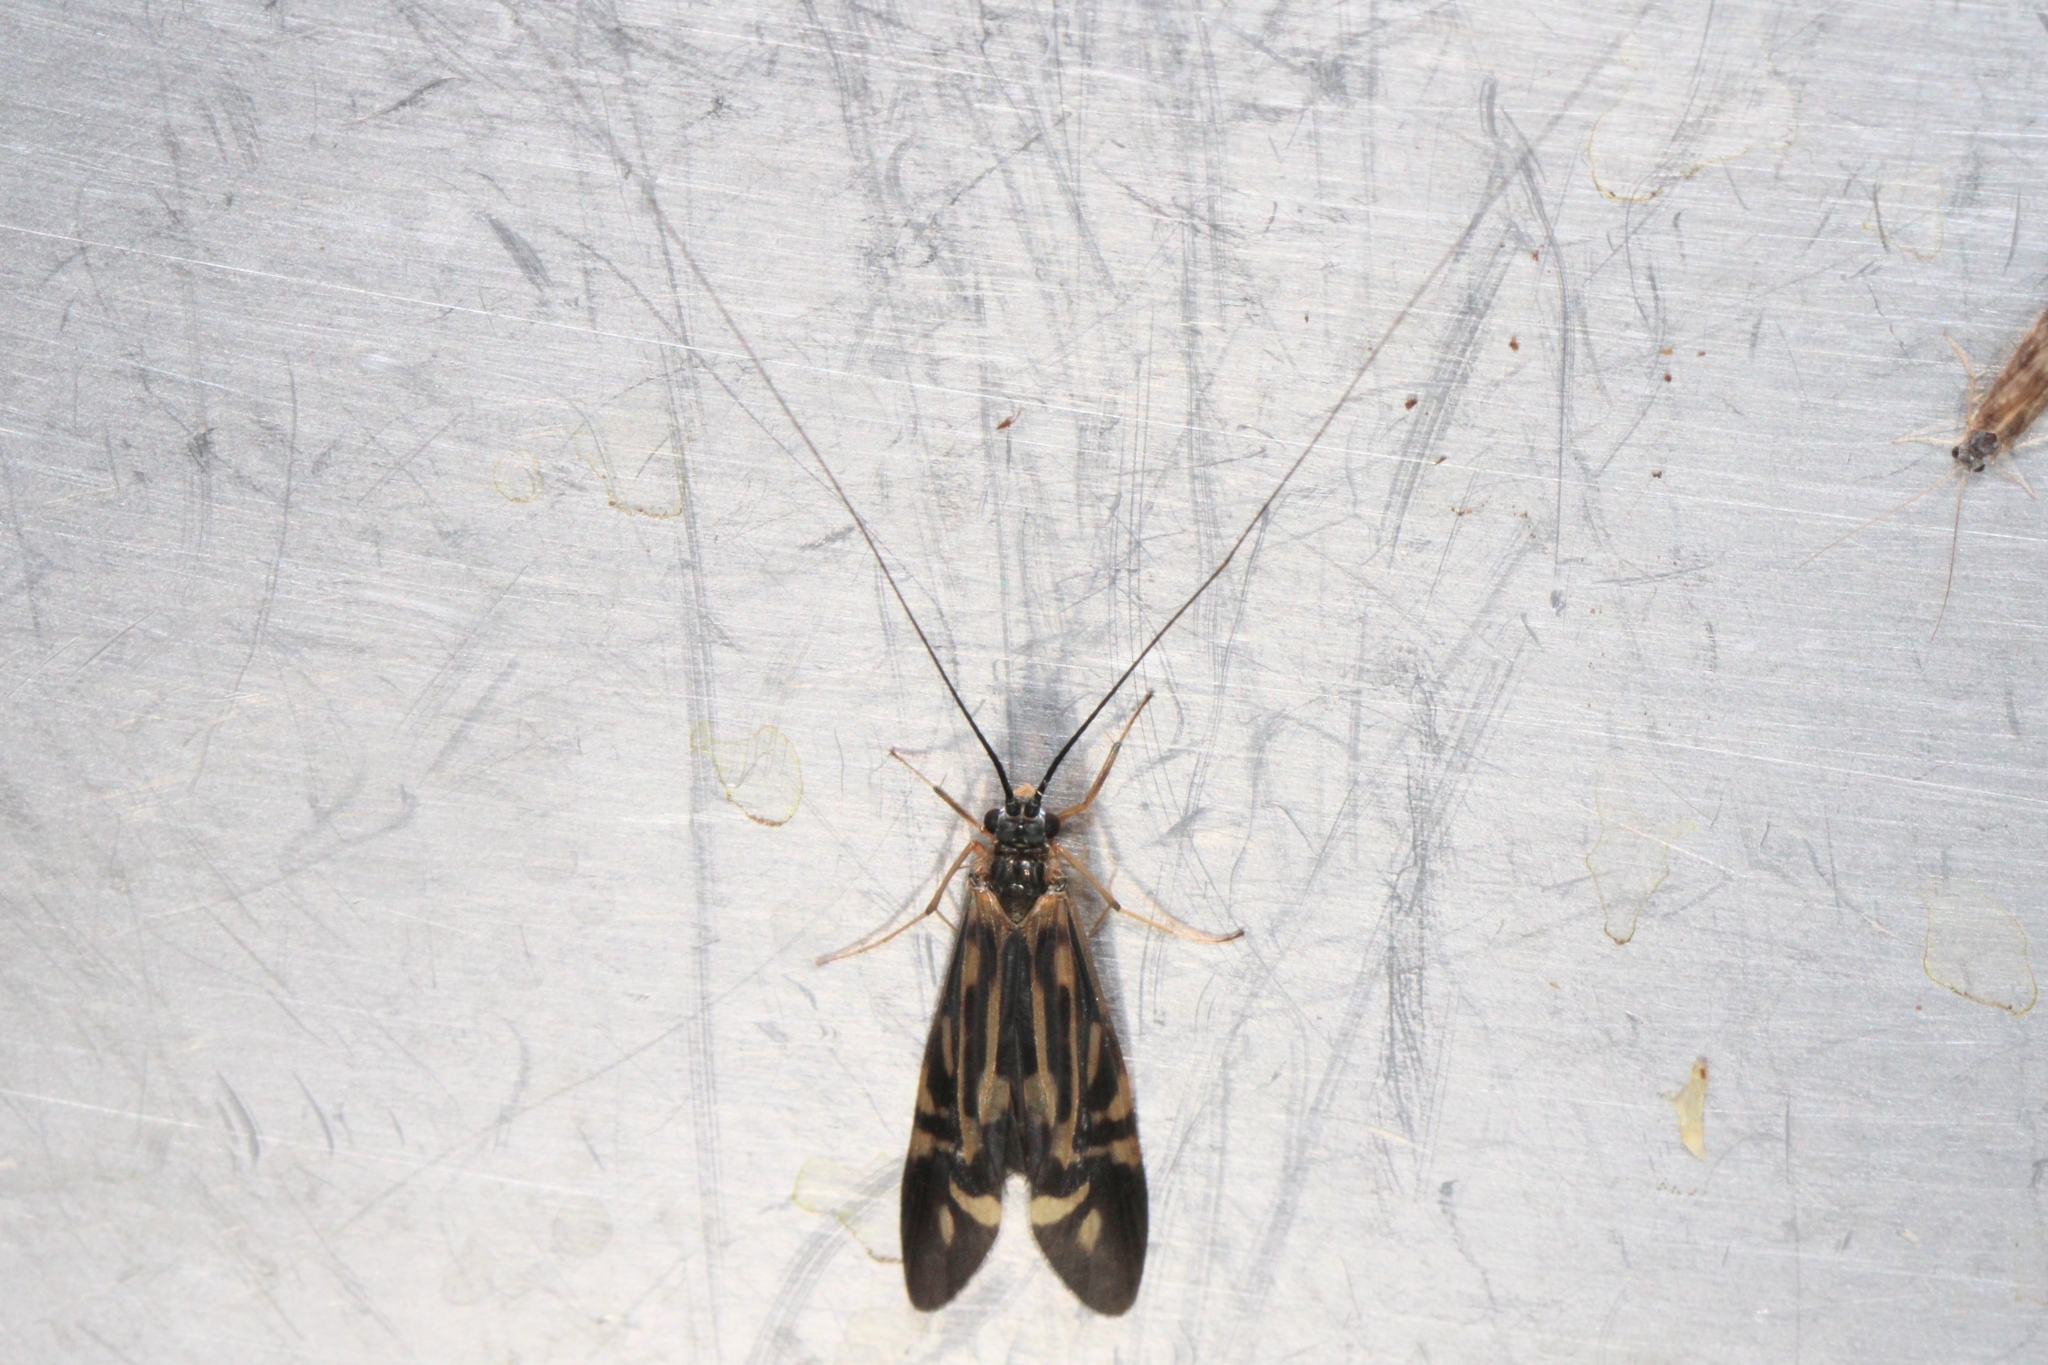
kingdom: Animalia
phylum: Arthropoda
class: Insecta
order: Trichoptera
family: Hydropsychidae
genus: Macrostemum
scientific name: Macrostemum zebratum
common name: Zebra caddisfly
